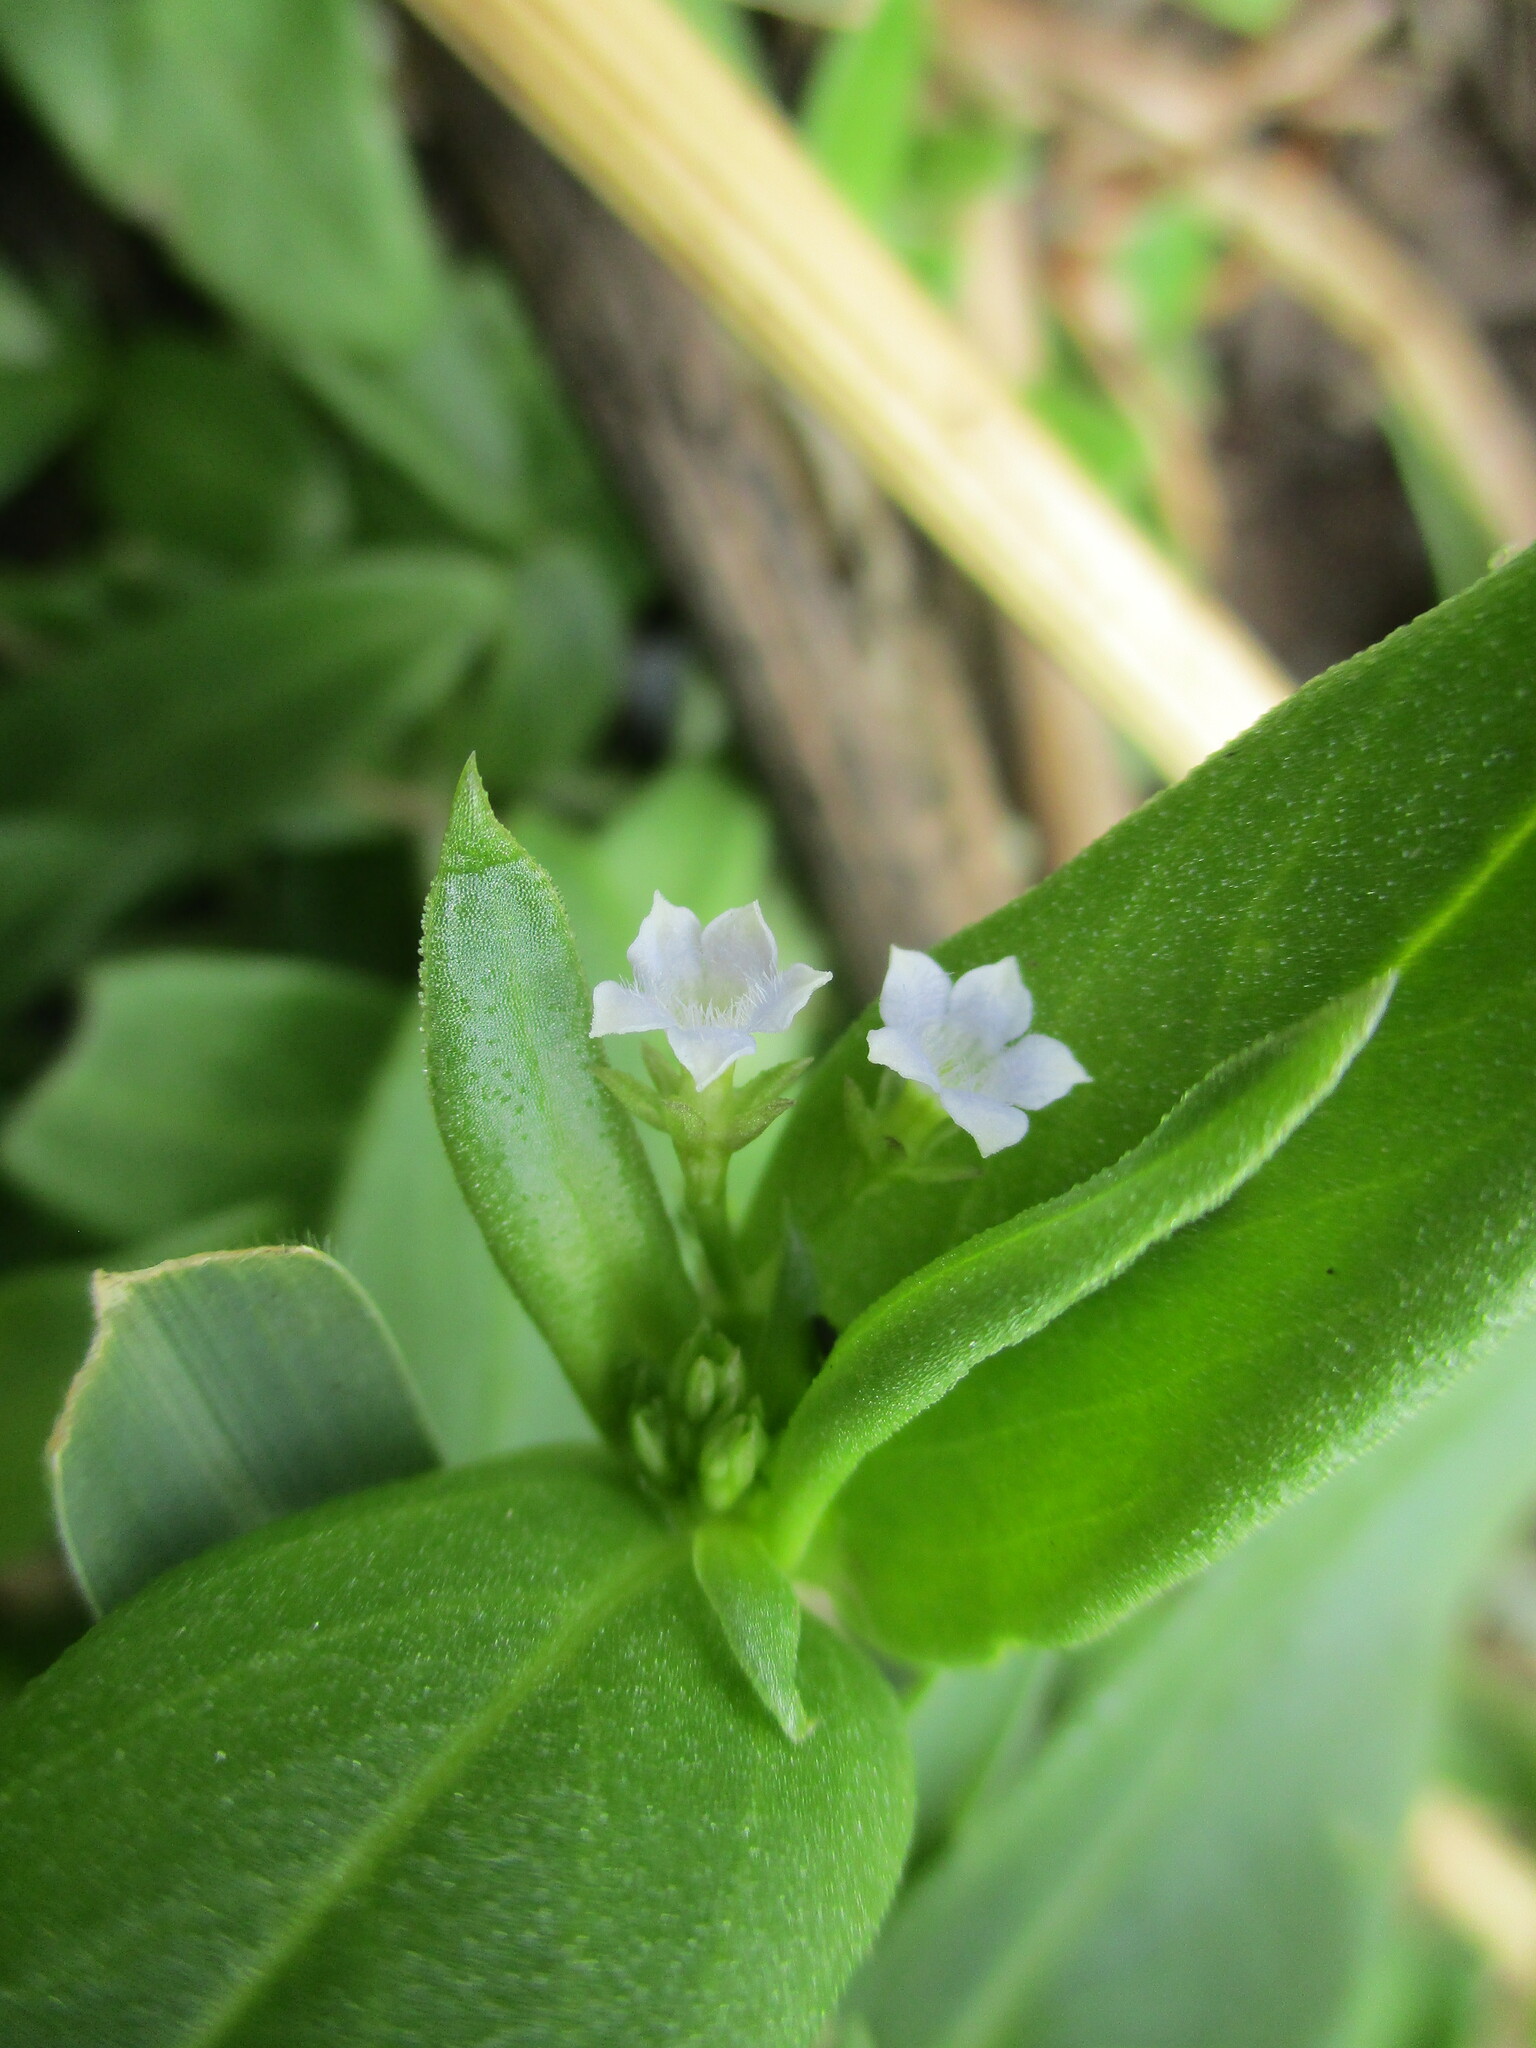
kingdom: Plantae
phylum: Tracheophyta
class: Magnoliopsida
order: Gentianales
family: Rubiaceae
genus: Pentodon
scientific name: Pentodon pentandrus
